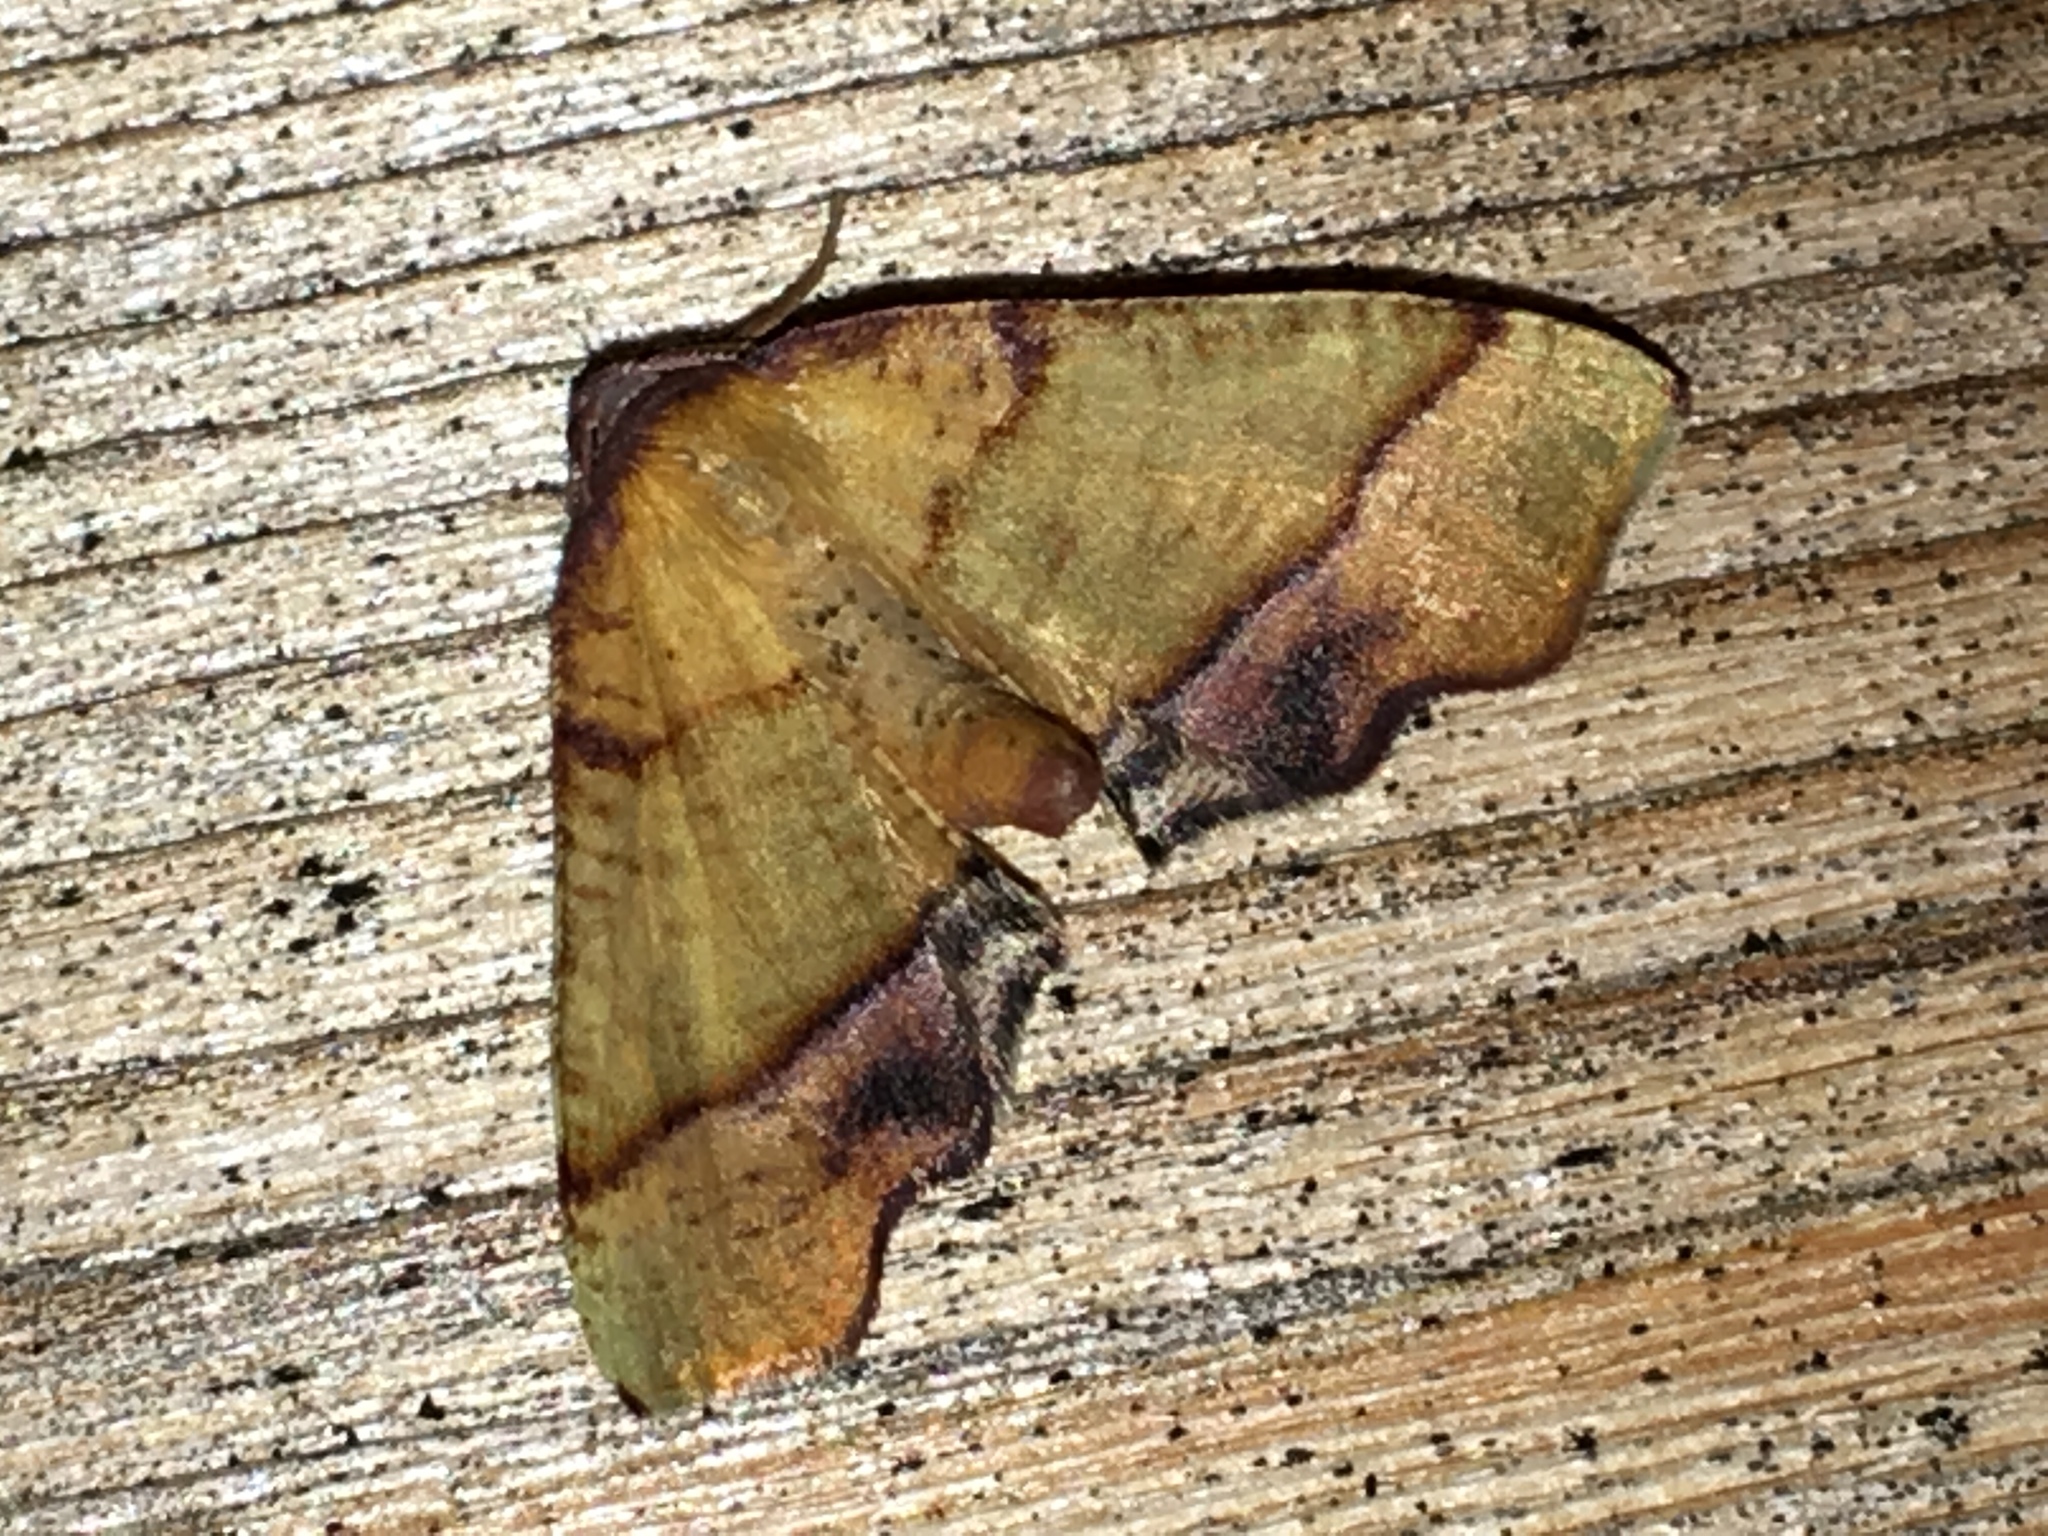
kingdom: Animalia
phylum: Arthropoda
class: Insecta
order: Lepidoptera
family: Geometridae
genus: Plagodis
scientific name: Plagodis phlogosaria
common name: Straight-lined plagodis
